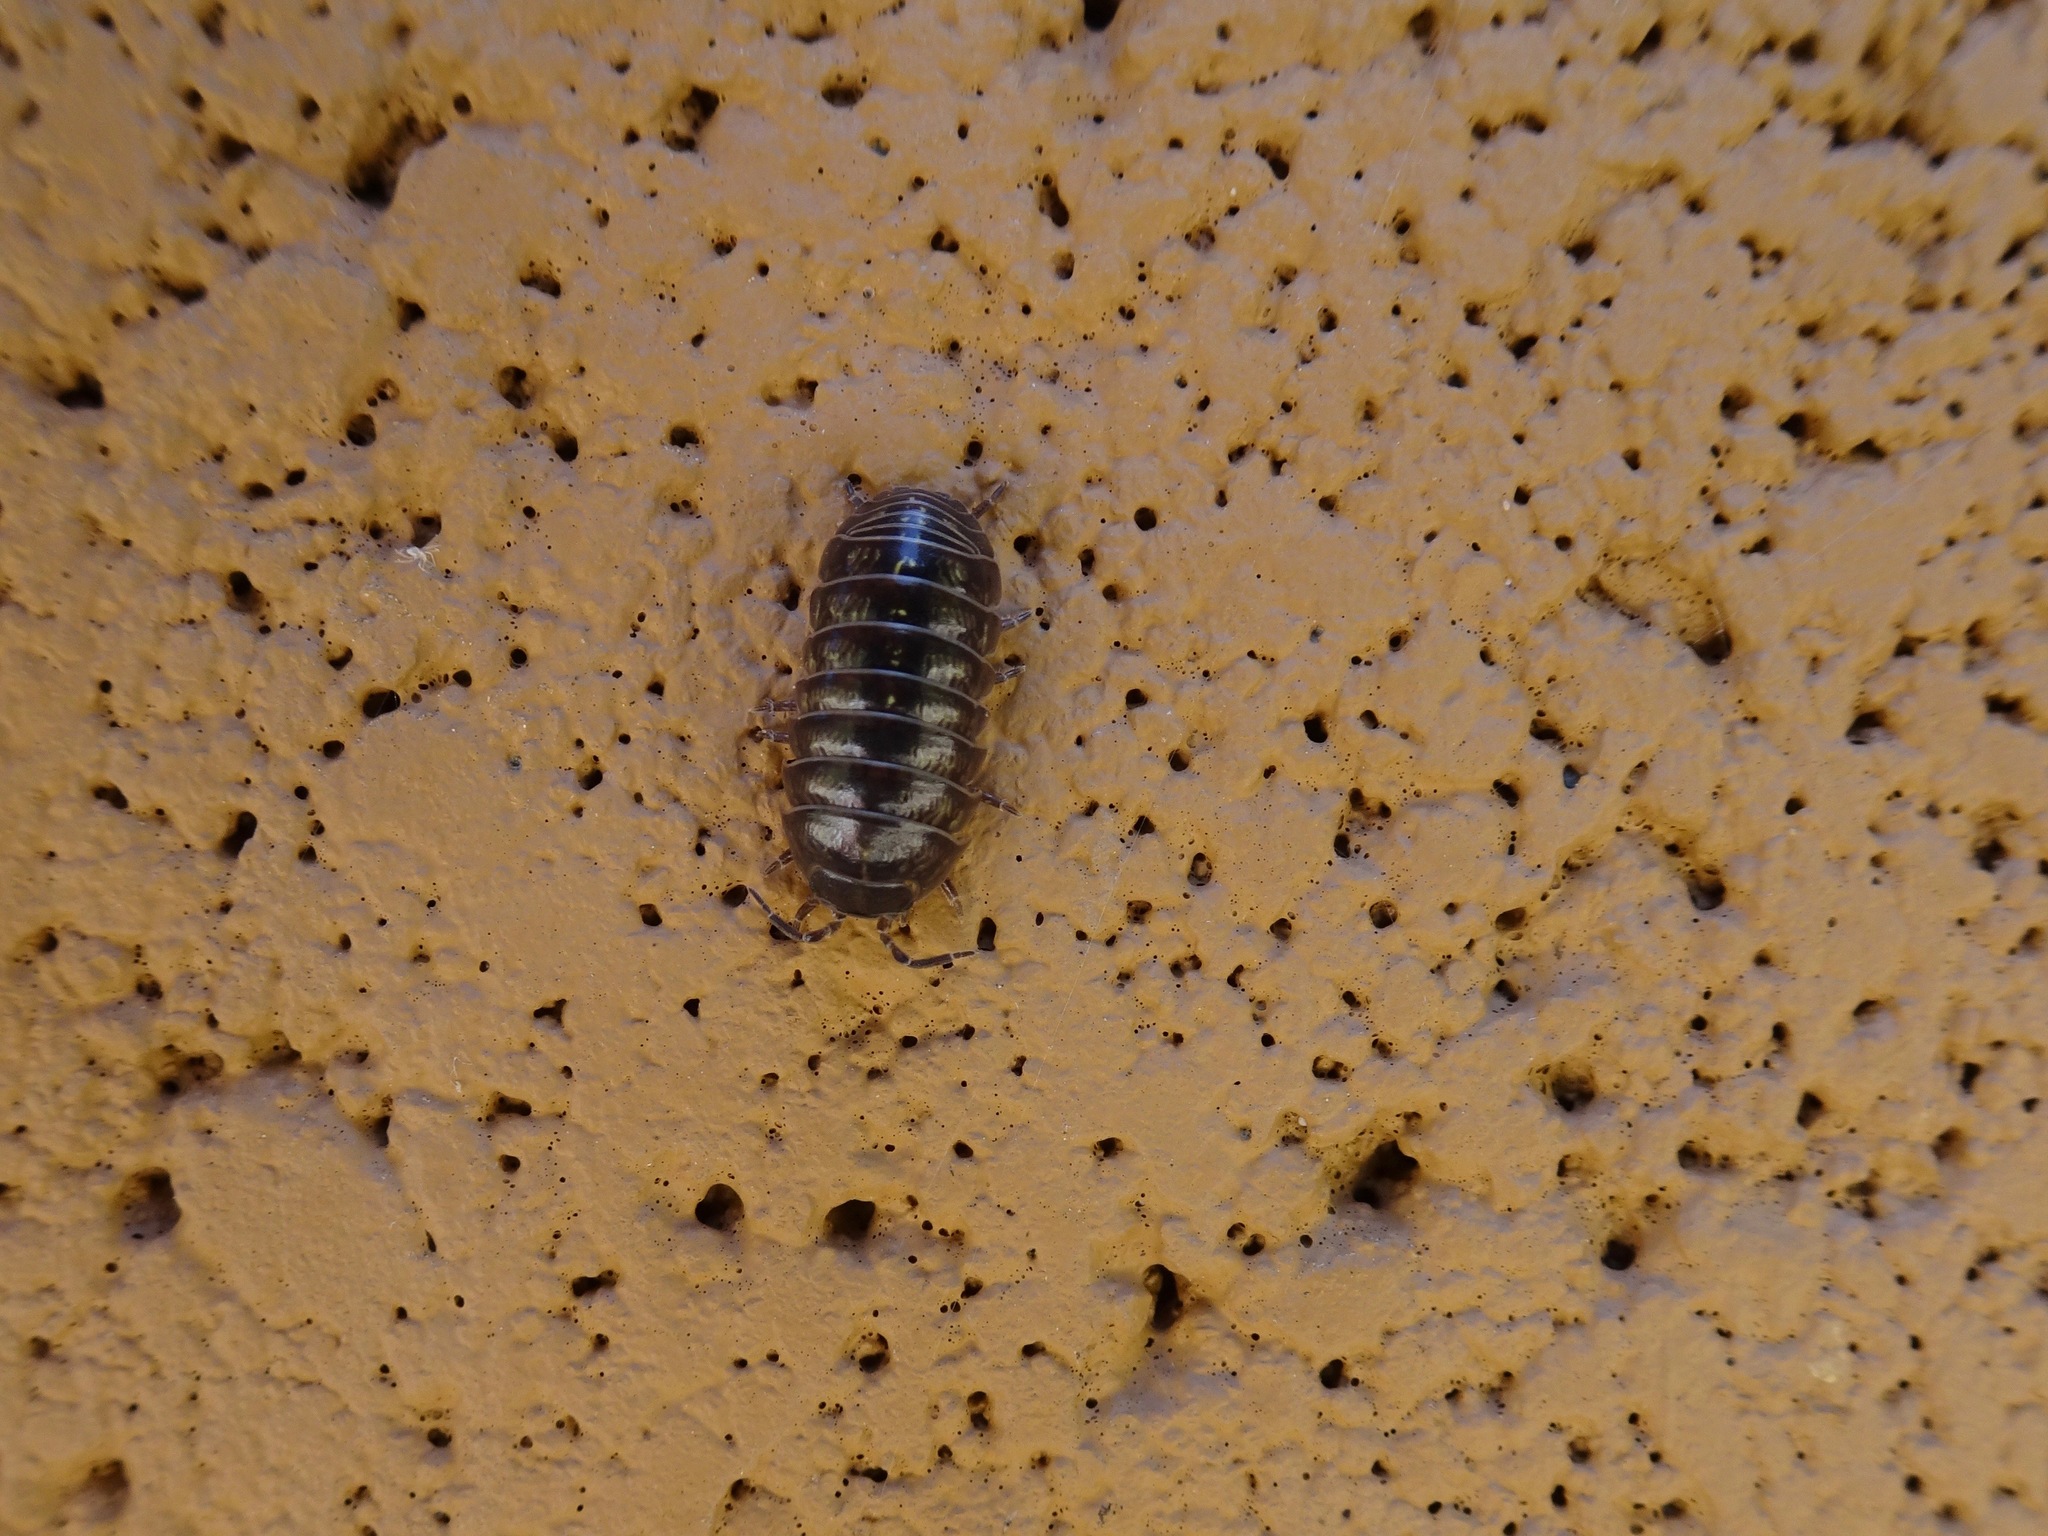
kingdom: Animalia
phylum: Arthropoda
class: Malacostraca
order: Isopoda
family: Armadillidiidae
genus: Armadillidium
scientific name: Armadillidium vulgare
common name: Common pill woodlouse
